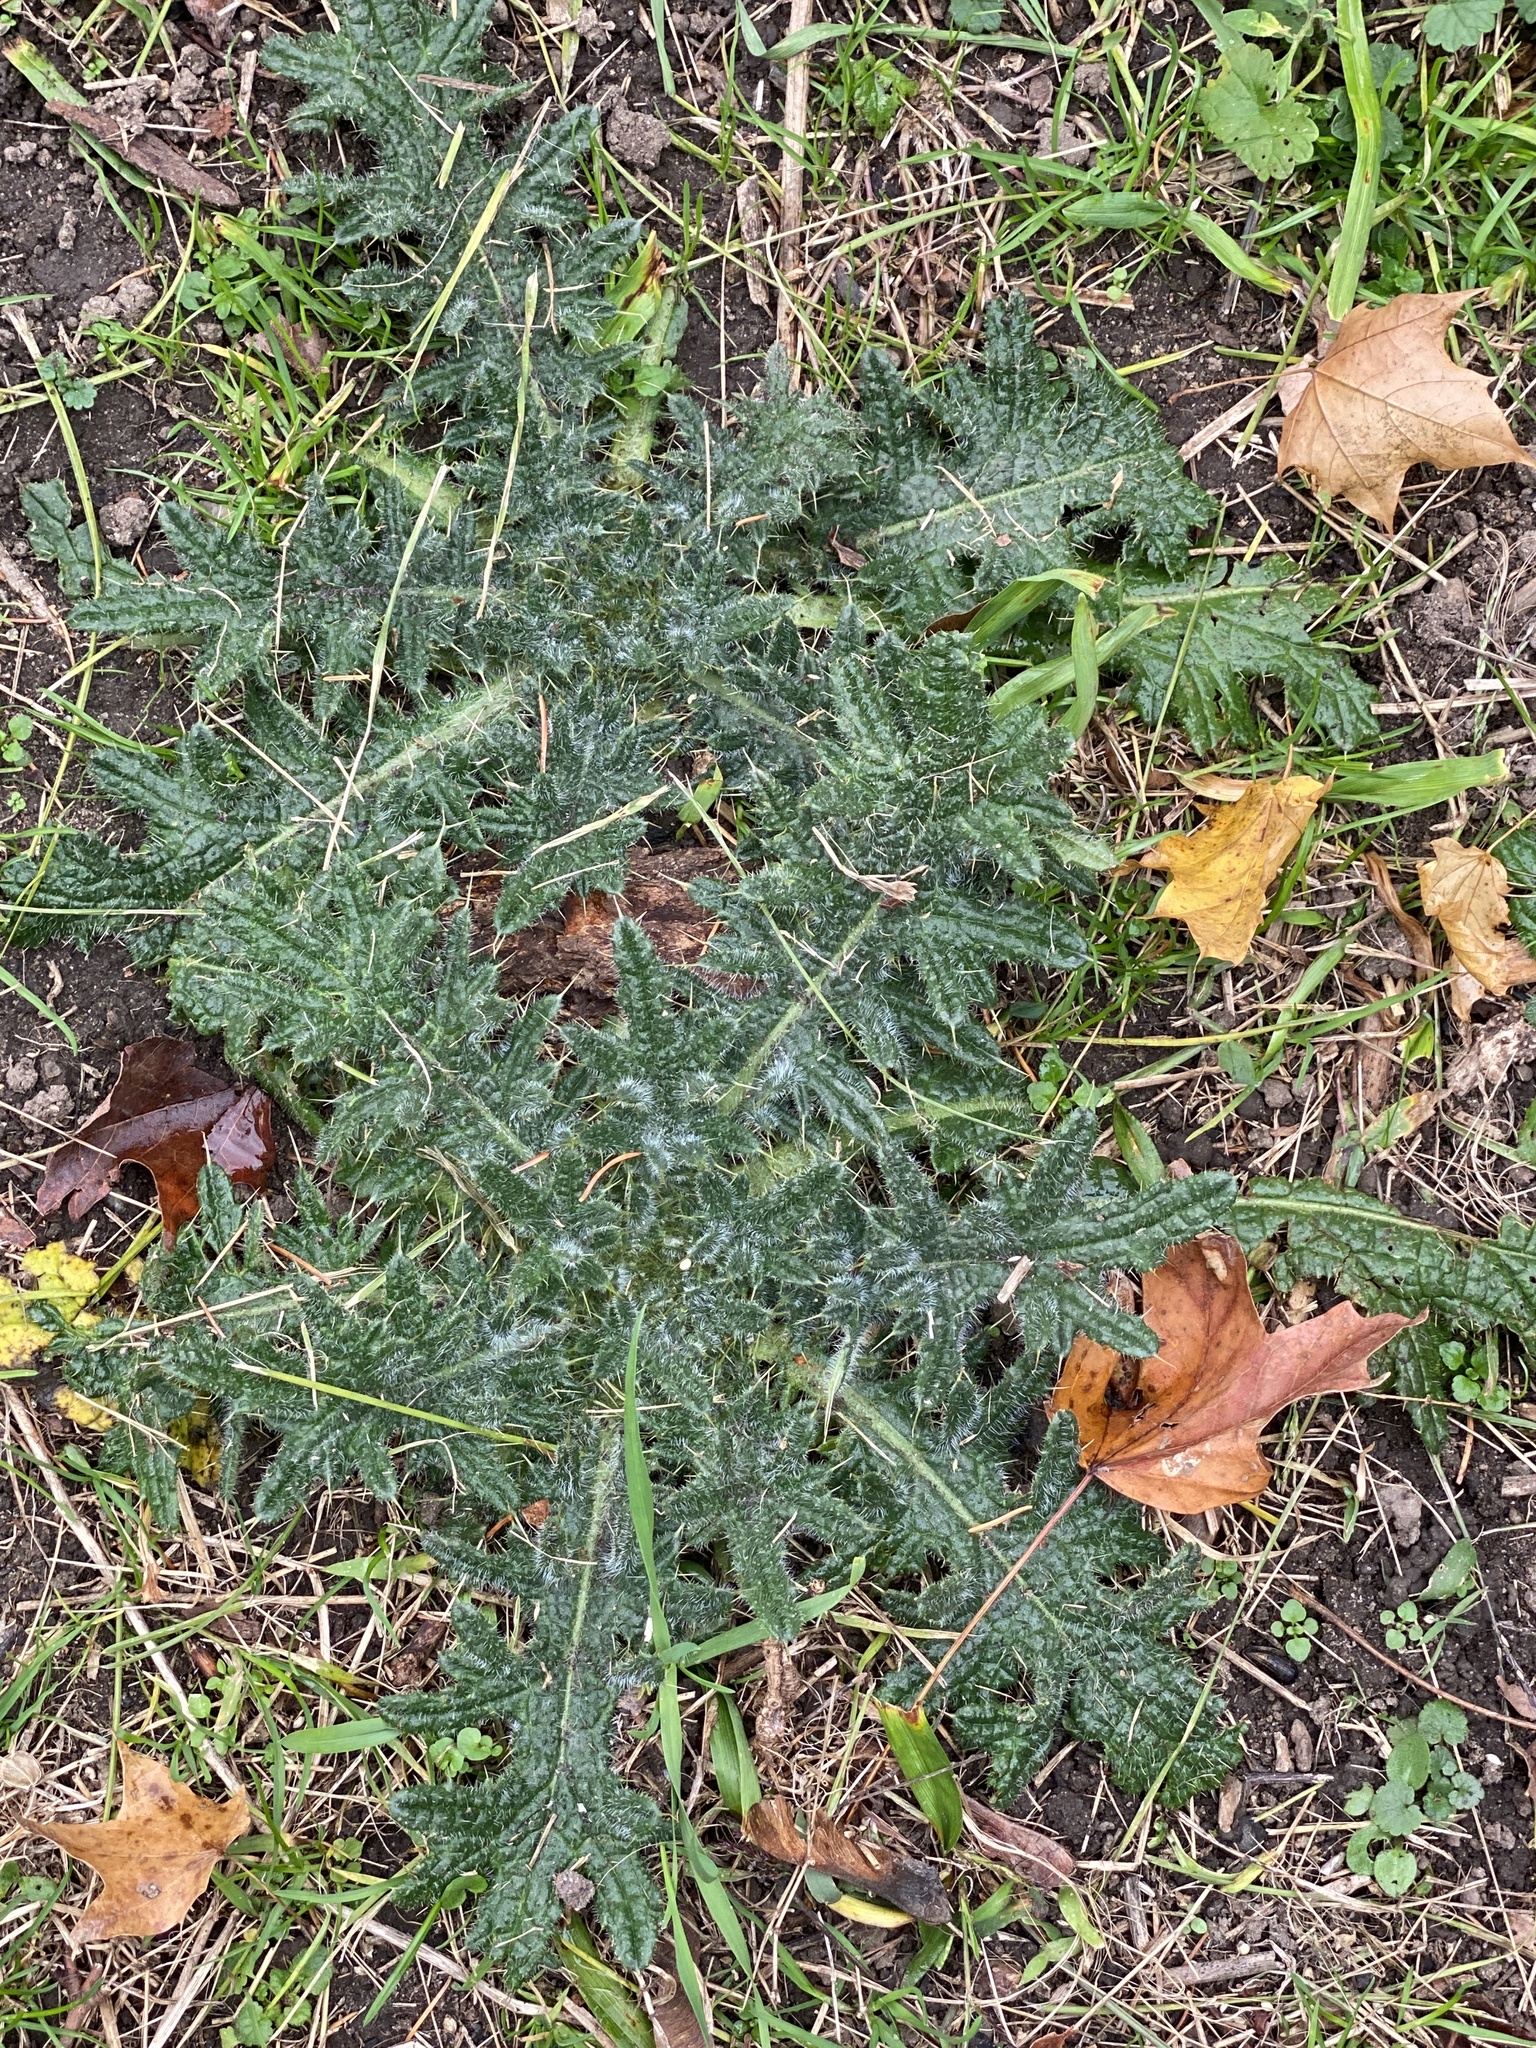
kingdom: Plantae
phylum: Tracheophyta
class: Magnoliopsida
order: Asterales
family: Asteraceae
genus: Cirsium
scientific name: Cirsium vulgare
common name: Bull thistle
